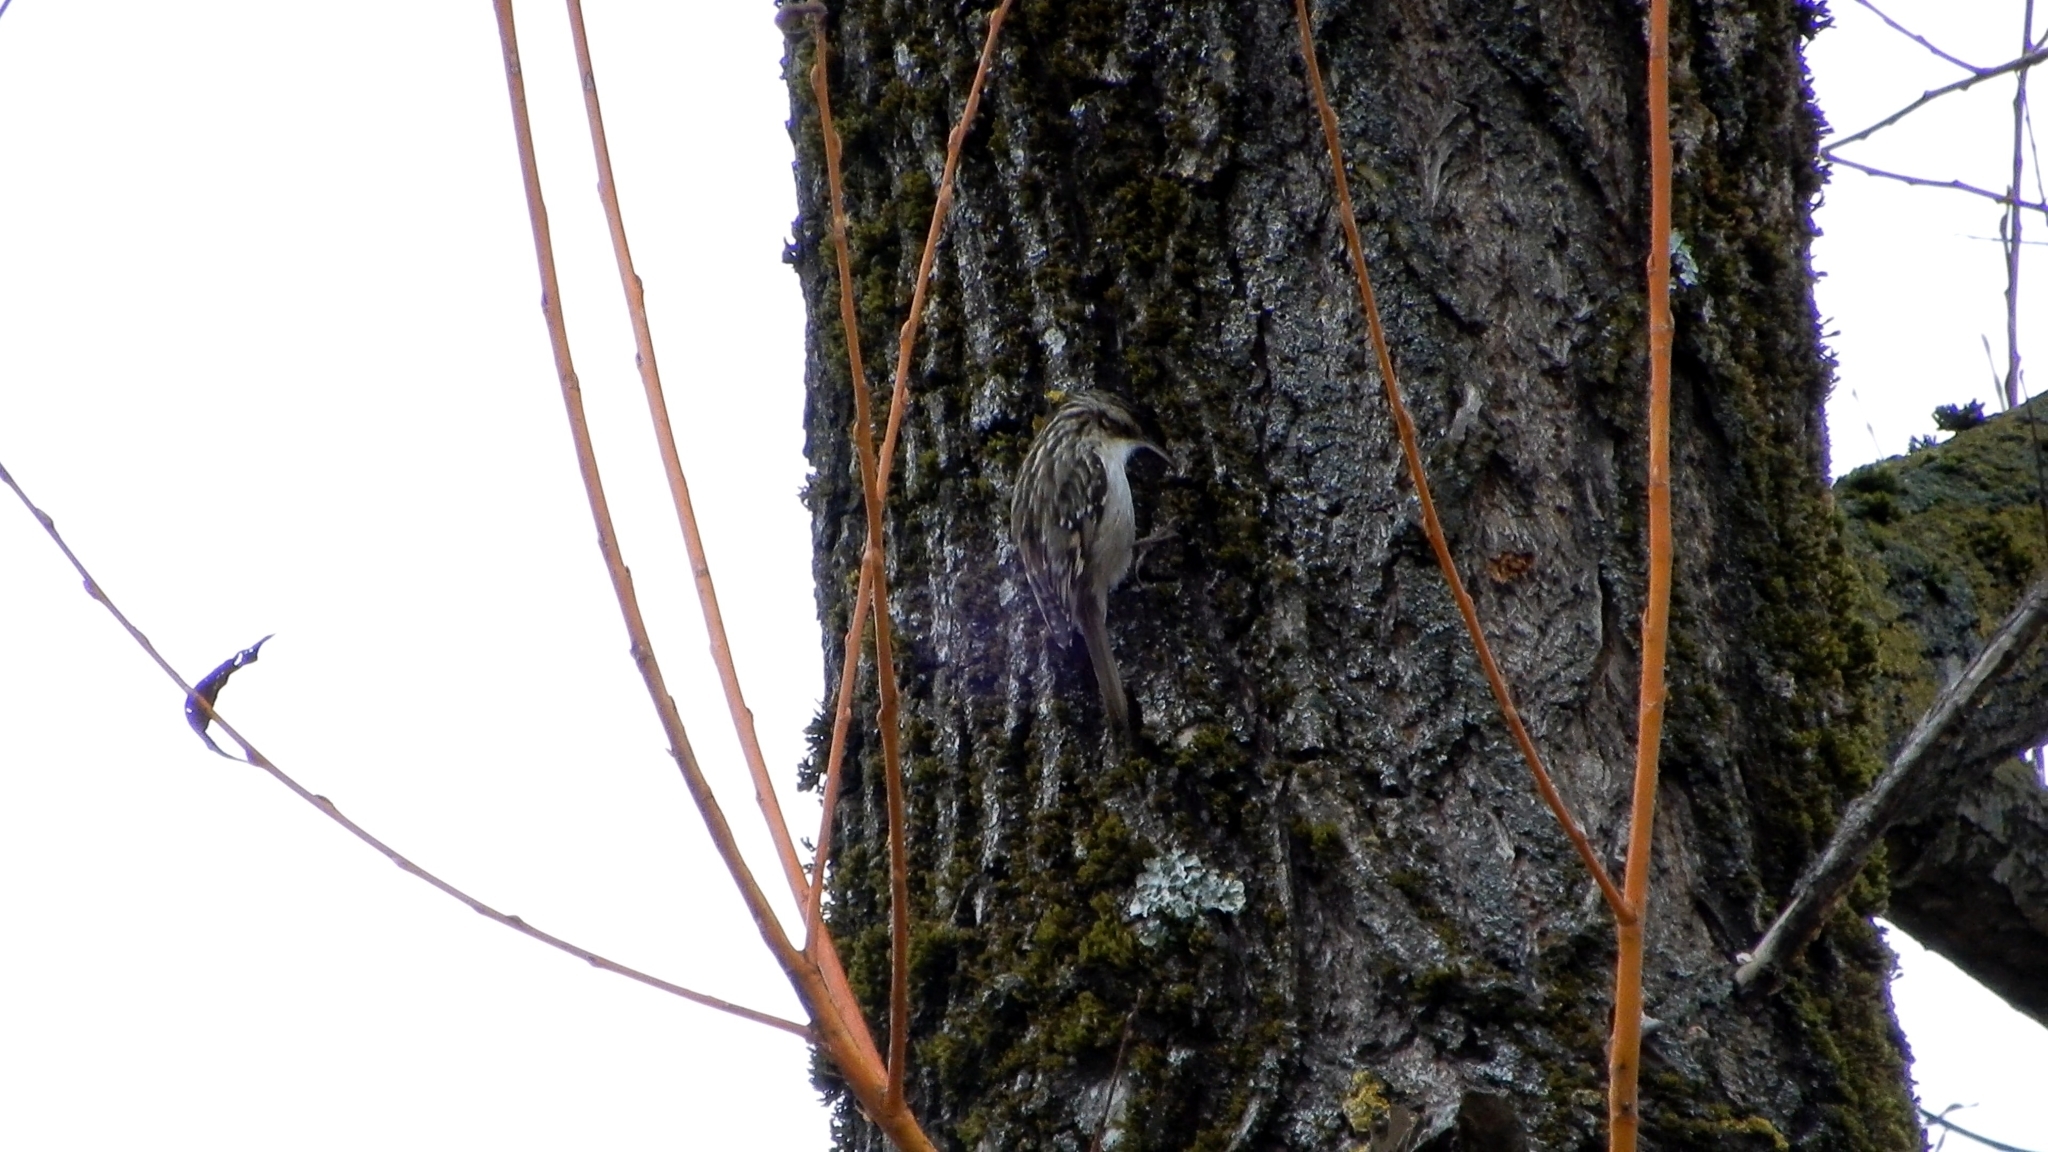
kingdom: Animalia
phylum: Chordata
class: Aves
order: Passeriformes
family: Certhiidae
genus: Certhia
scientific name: Certhia brachydactyla
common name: Short-toed treecreeper
